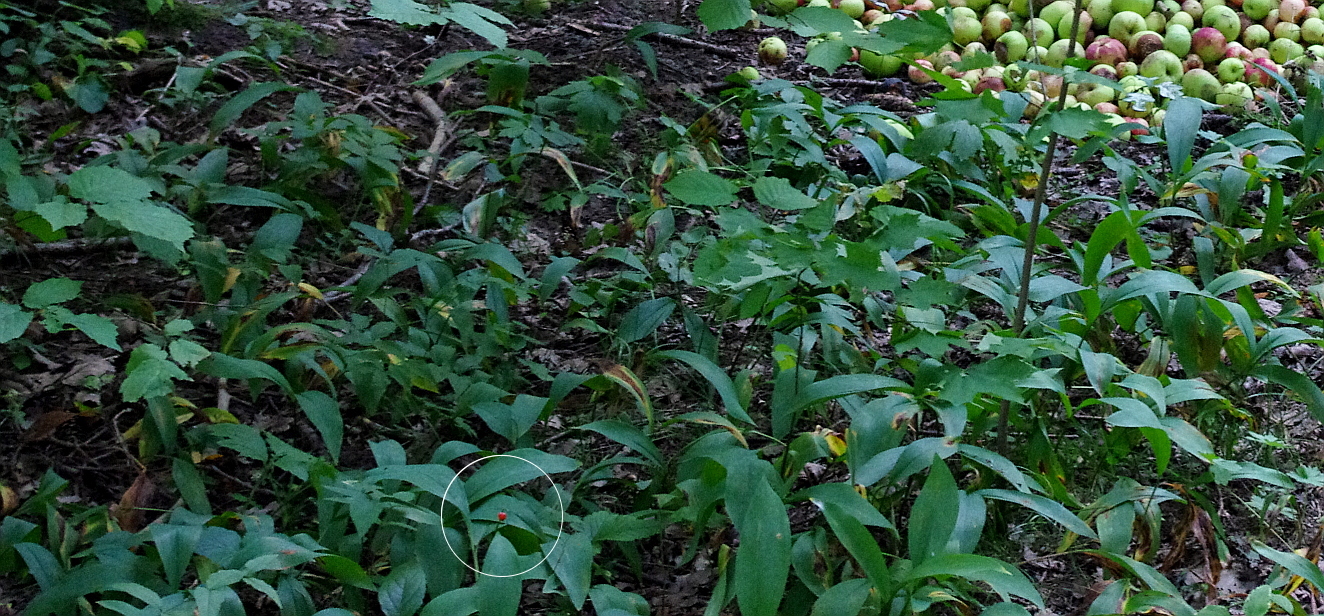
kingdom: Plantae
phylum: Tracheophyta
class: Liliopsida
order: Asparagales
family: Asparagaceae
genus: Convallaria
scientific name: Convallaria majalis
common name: Lily-of-the-valley
